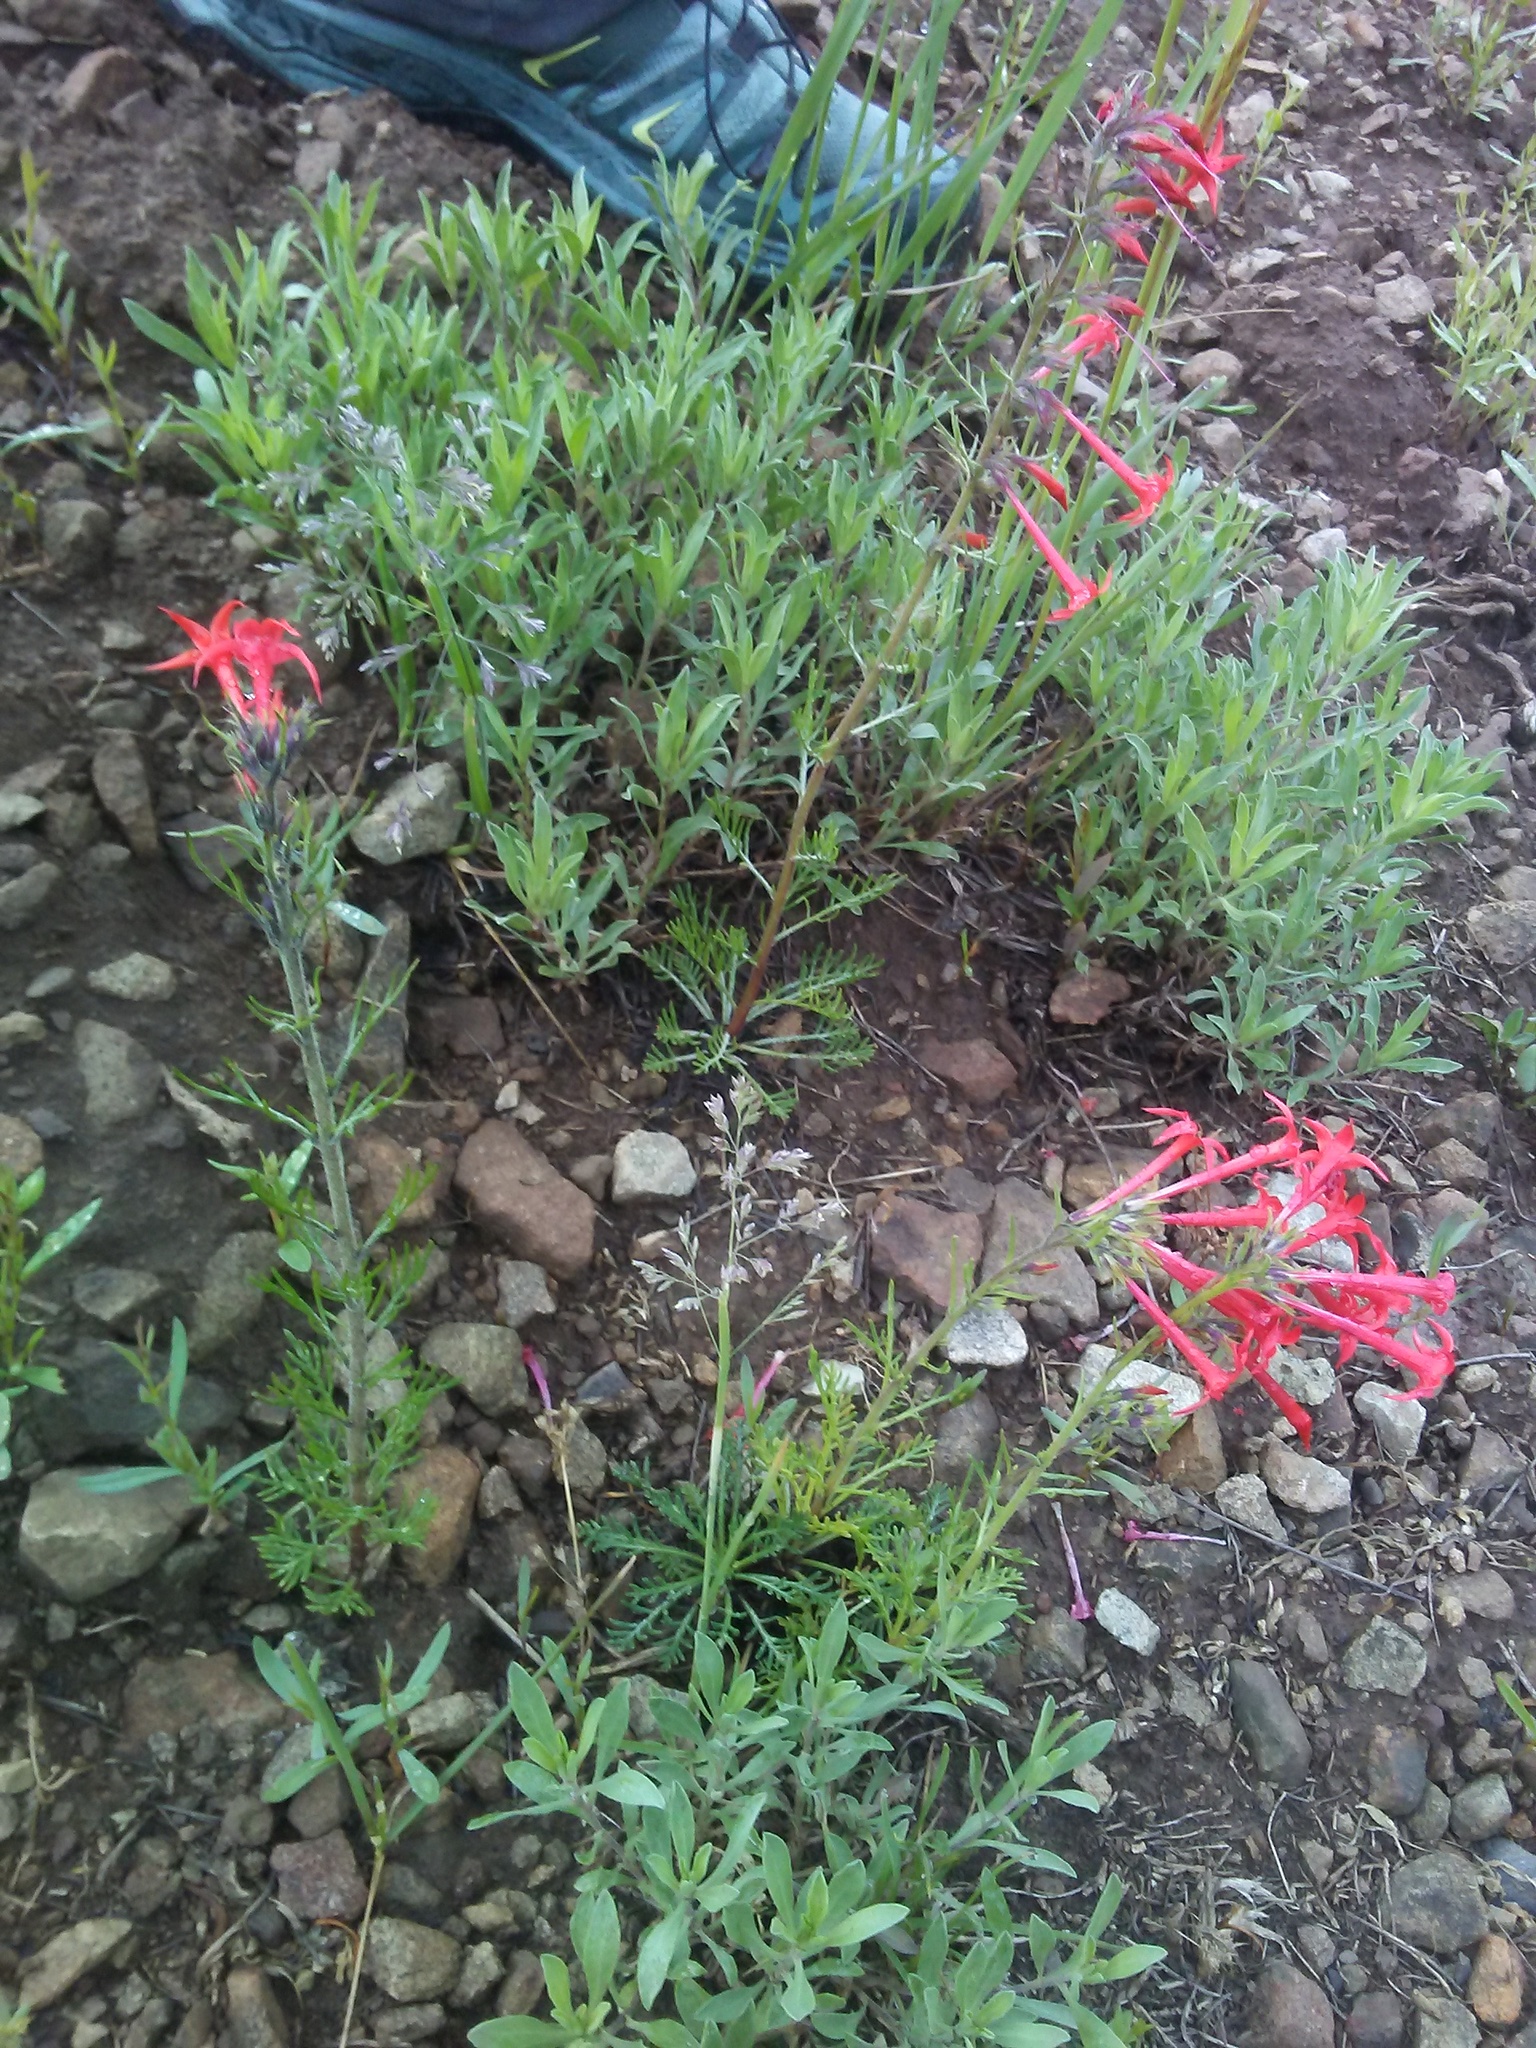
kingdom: Plantae
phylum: Tracheophyta
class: Magnoliopsida
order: Ericales
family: Polemoniaceae
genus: Ipomopsis
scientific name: Ipomopsis aggregata
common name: Scarlet gilia
